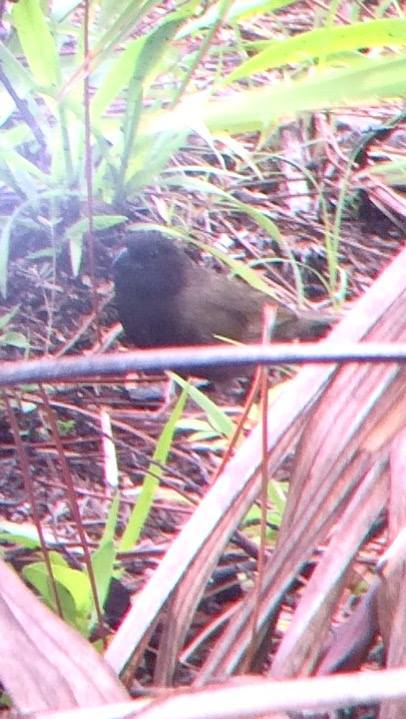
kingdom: Animalia
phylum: Chordata
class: Aves
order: Passeriformes
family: Thraupidae
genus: Melanospiza
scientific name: Melanospiza bicolor
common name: Black-faced grassquit
